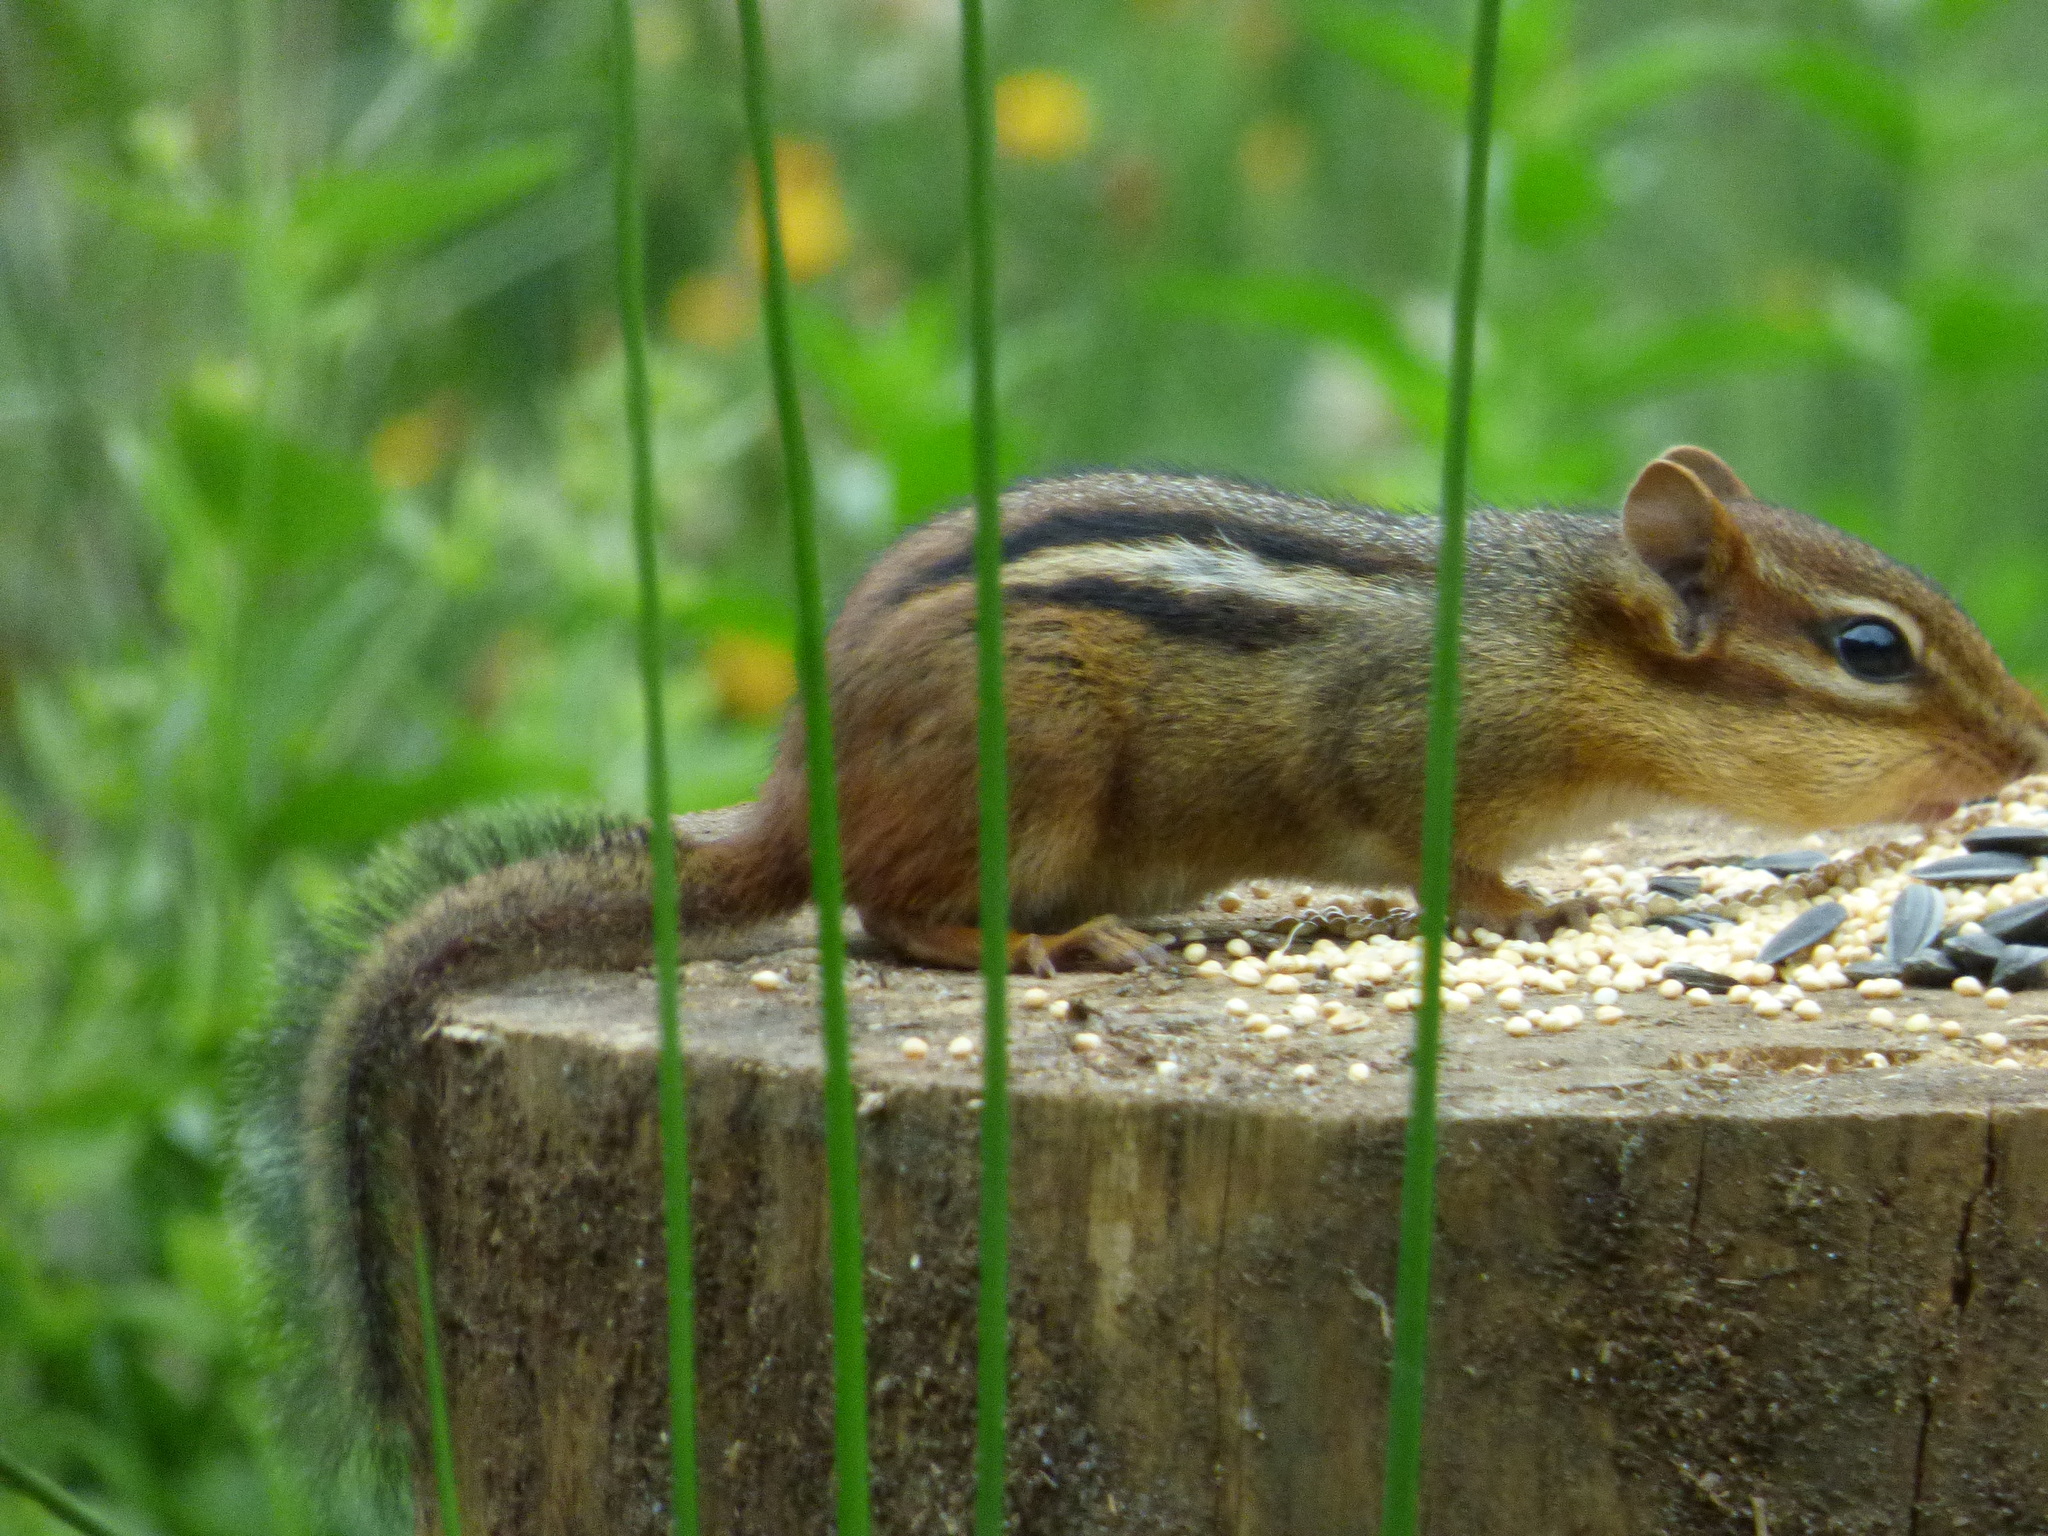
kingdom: Animalia
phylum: Chordata
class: Mammalia
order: Rodentia
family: Sciuridae
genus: Tamias
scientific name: Tamias striatus
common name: Eastern chipmunk
